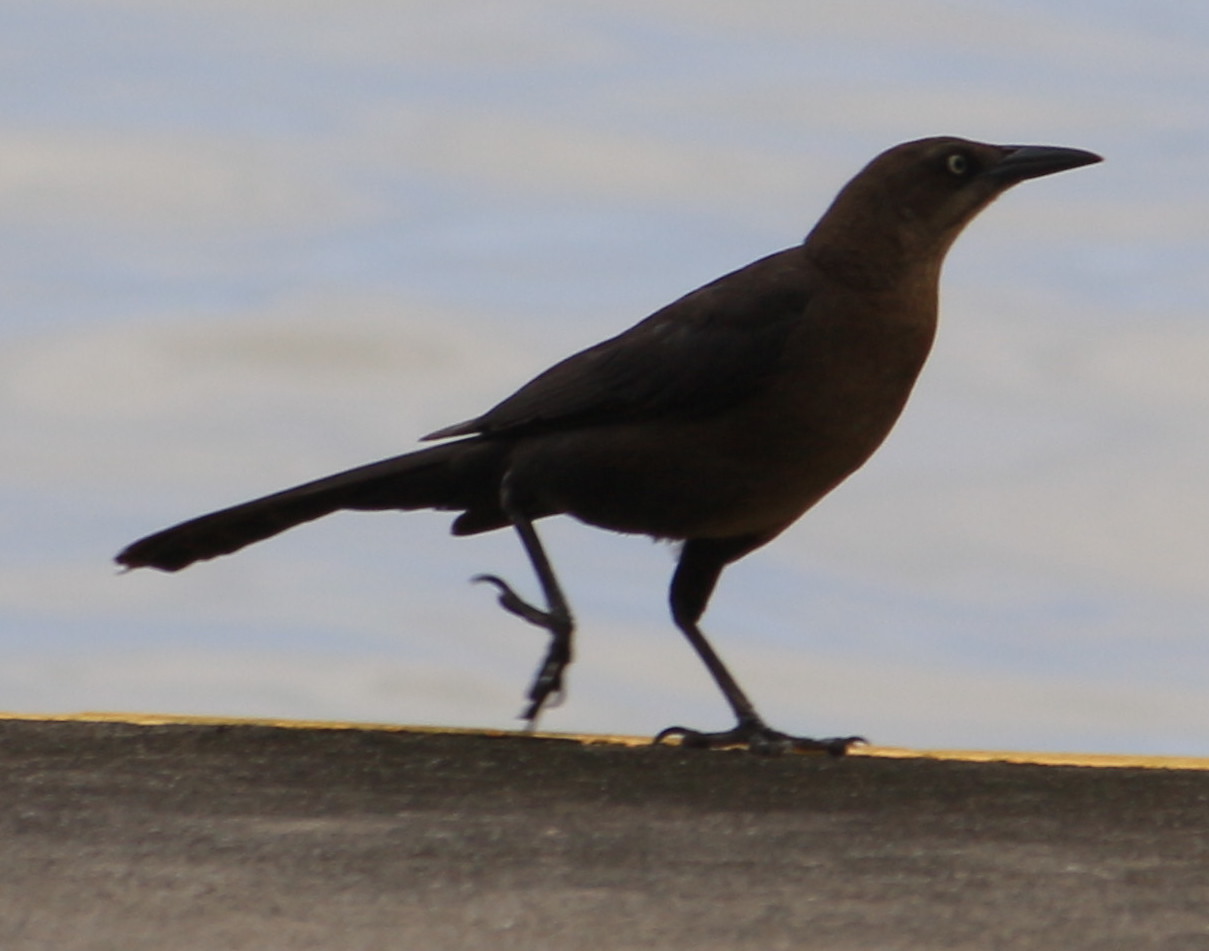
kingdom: Animalia
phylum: Chordata
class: Aves
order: Passeriformes
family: Icteridae
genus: Quiscalus
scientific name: Quiscalus mexicanus
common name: Great-tailed grackle
